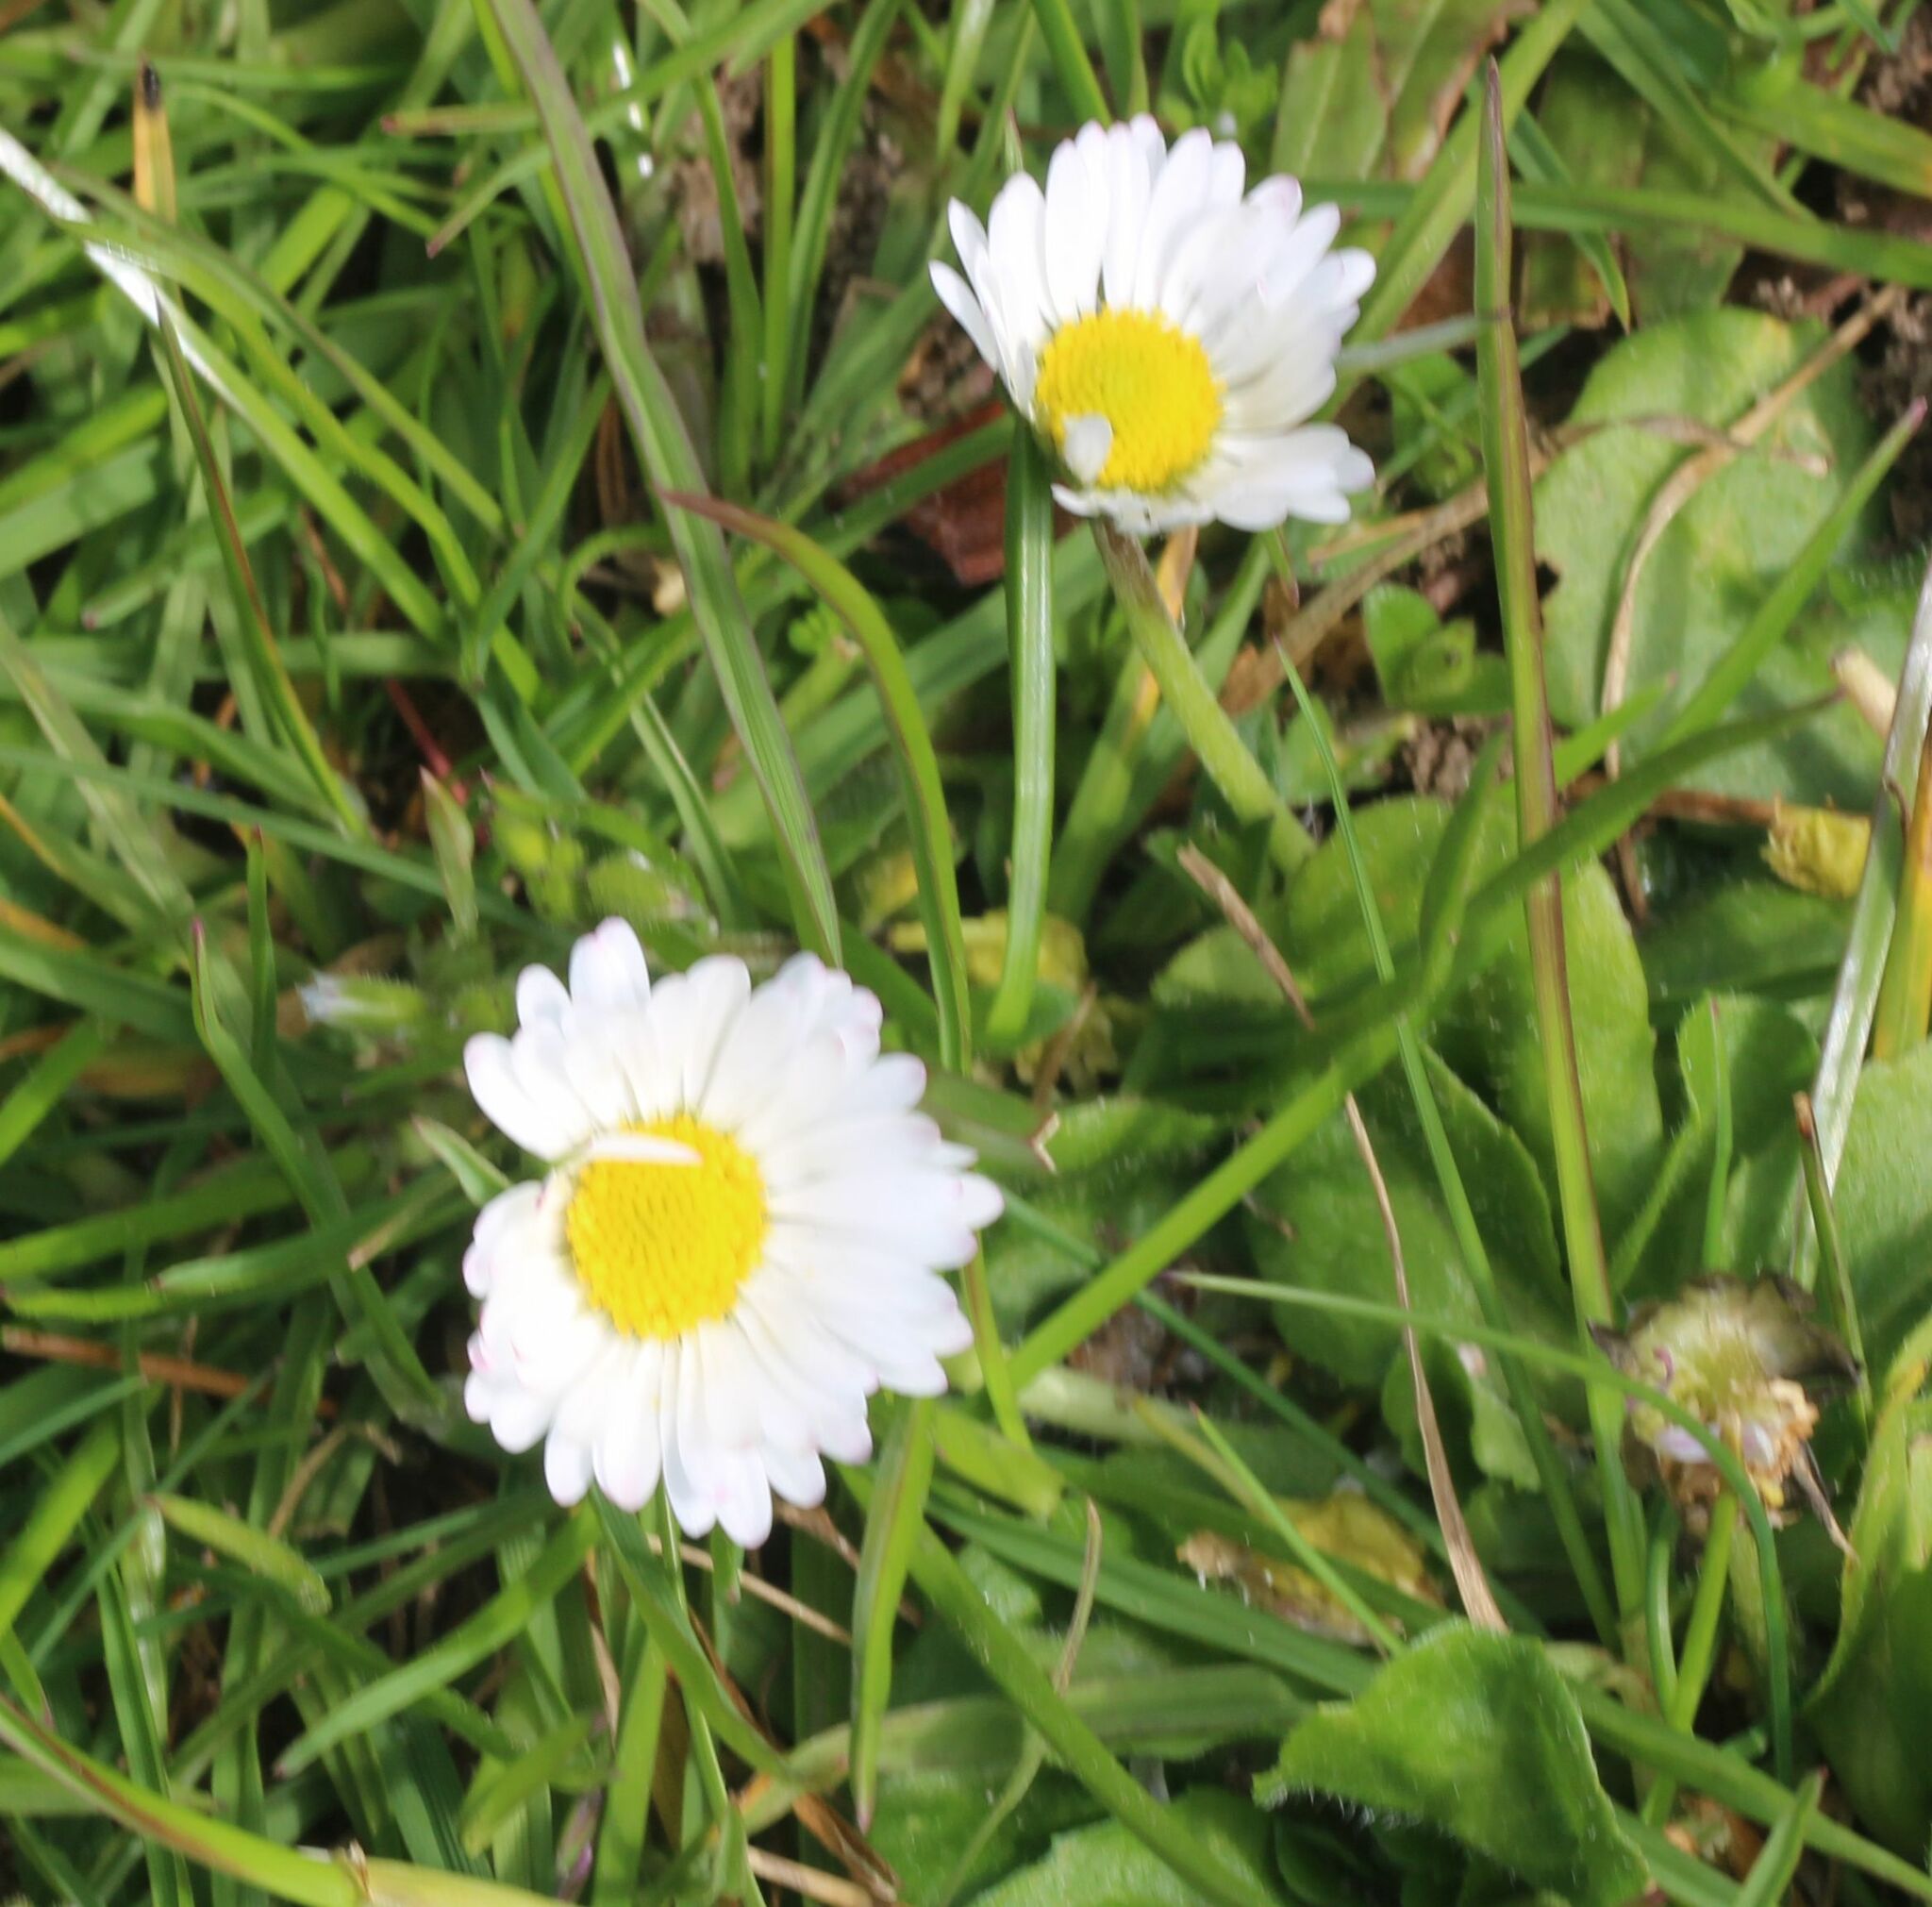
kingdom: Plantae
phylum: Tracheophyta
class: Magnoliopsida
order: Asterales
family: Asteraceae
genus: Bellis
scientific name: Bellis perennis
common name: Lawndaisy
